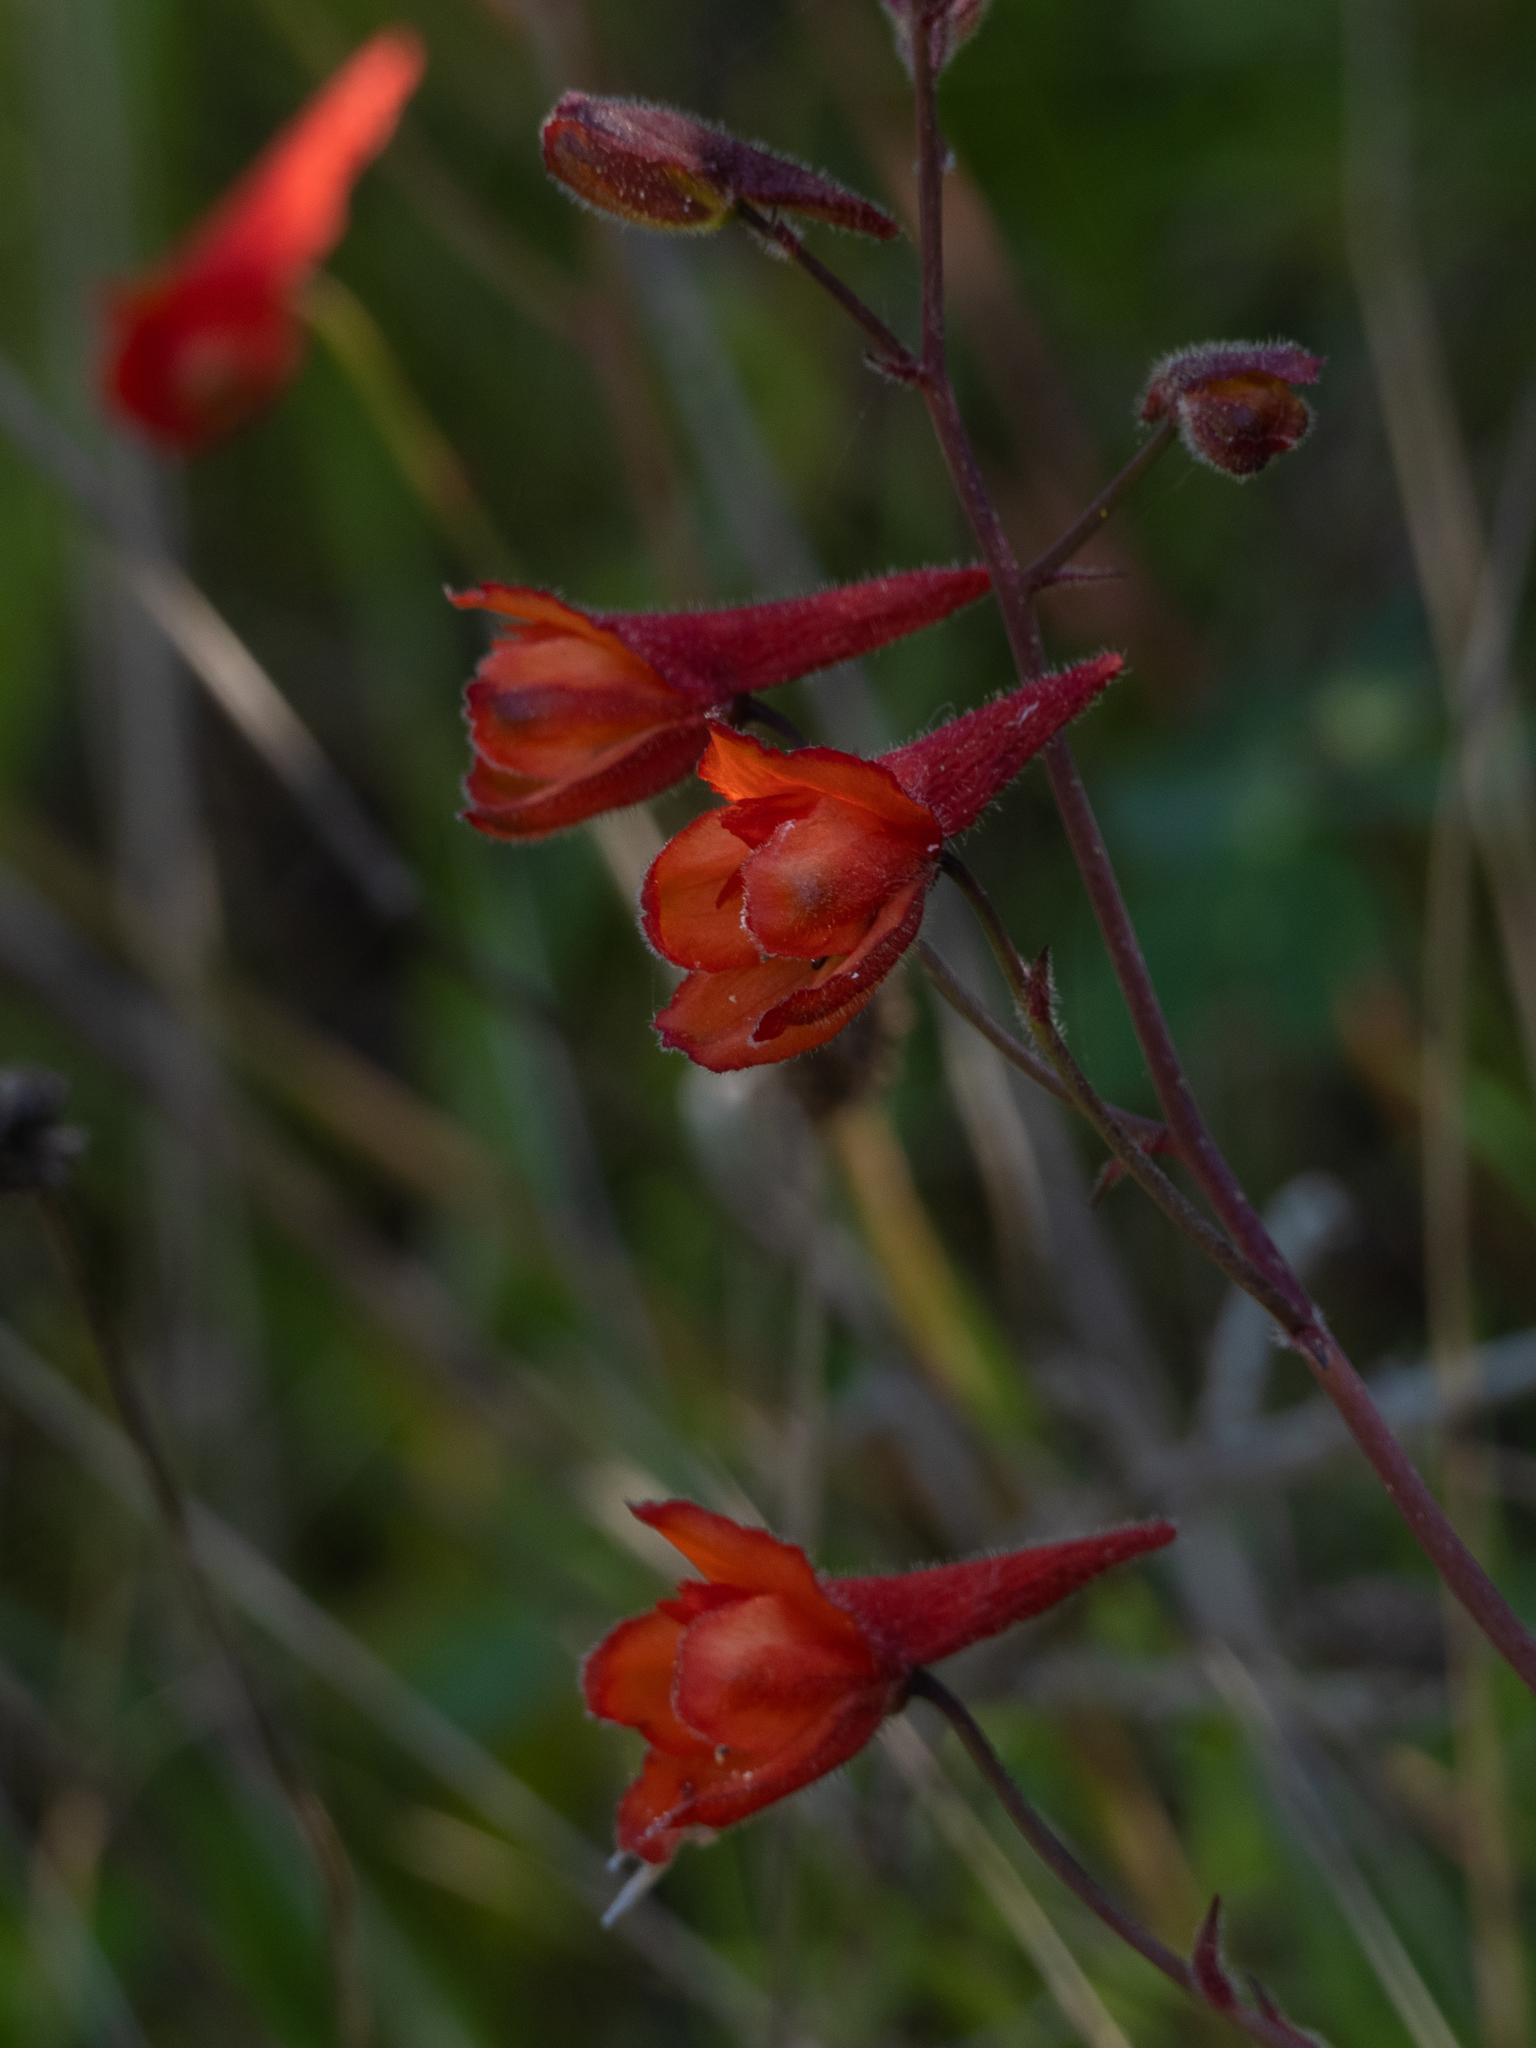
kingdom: Plantae
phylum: Tracheophyta
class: Magnoliopsida
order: Ranunculales
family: Ranunculaceae
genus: Delphinium
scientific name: Delphinium nudicaule
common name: Red larkspur
